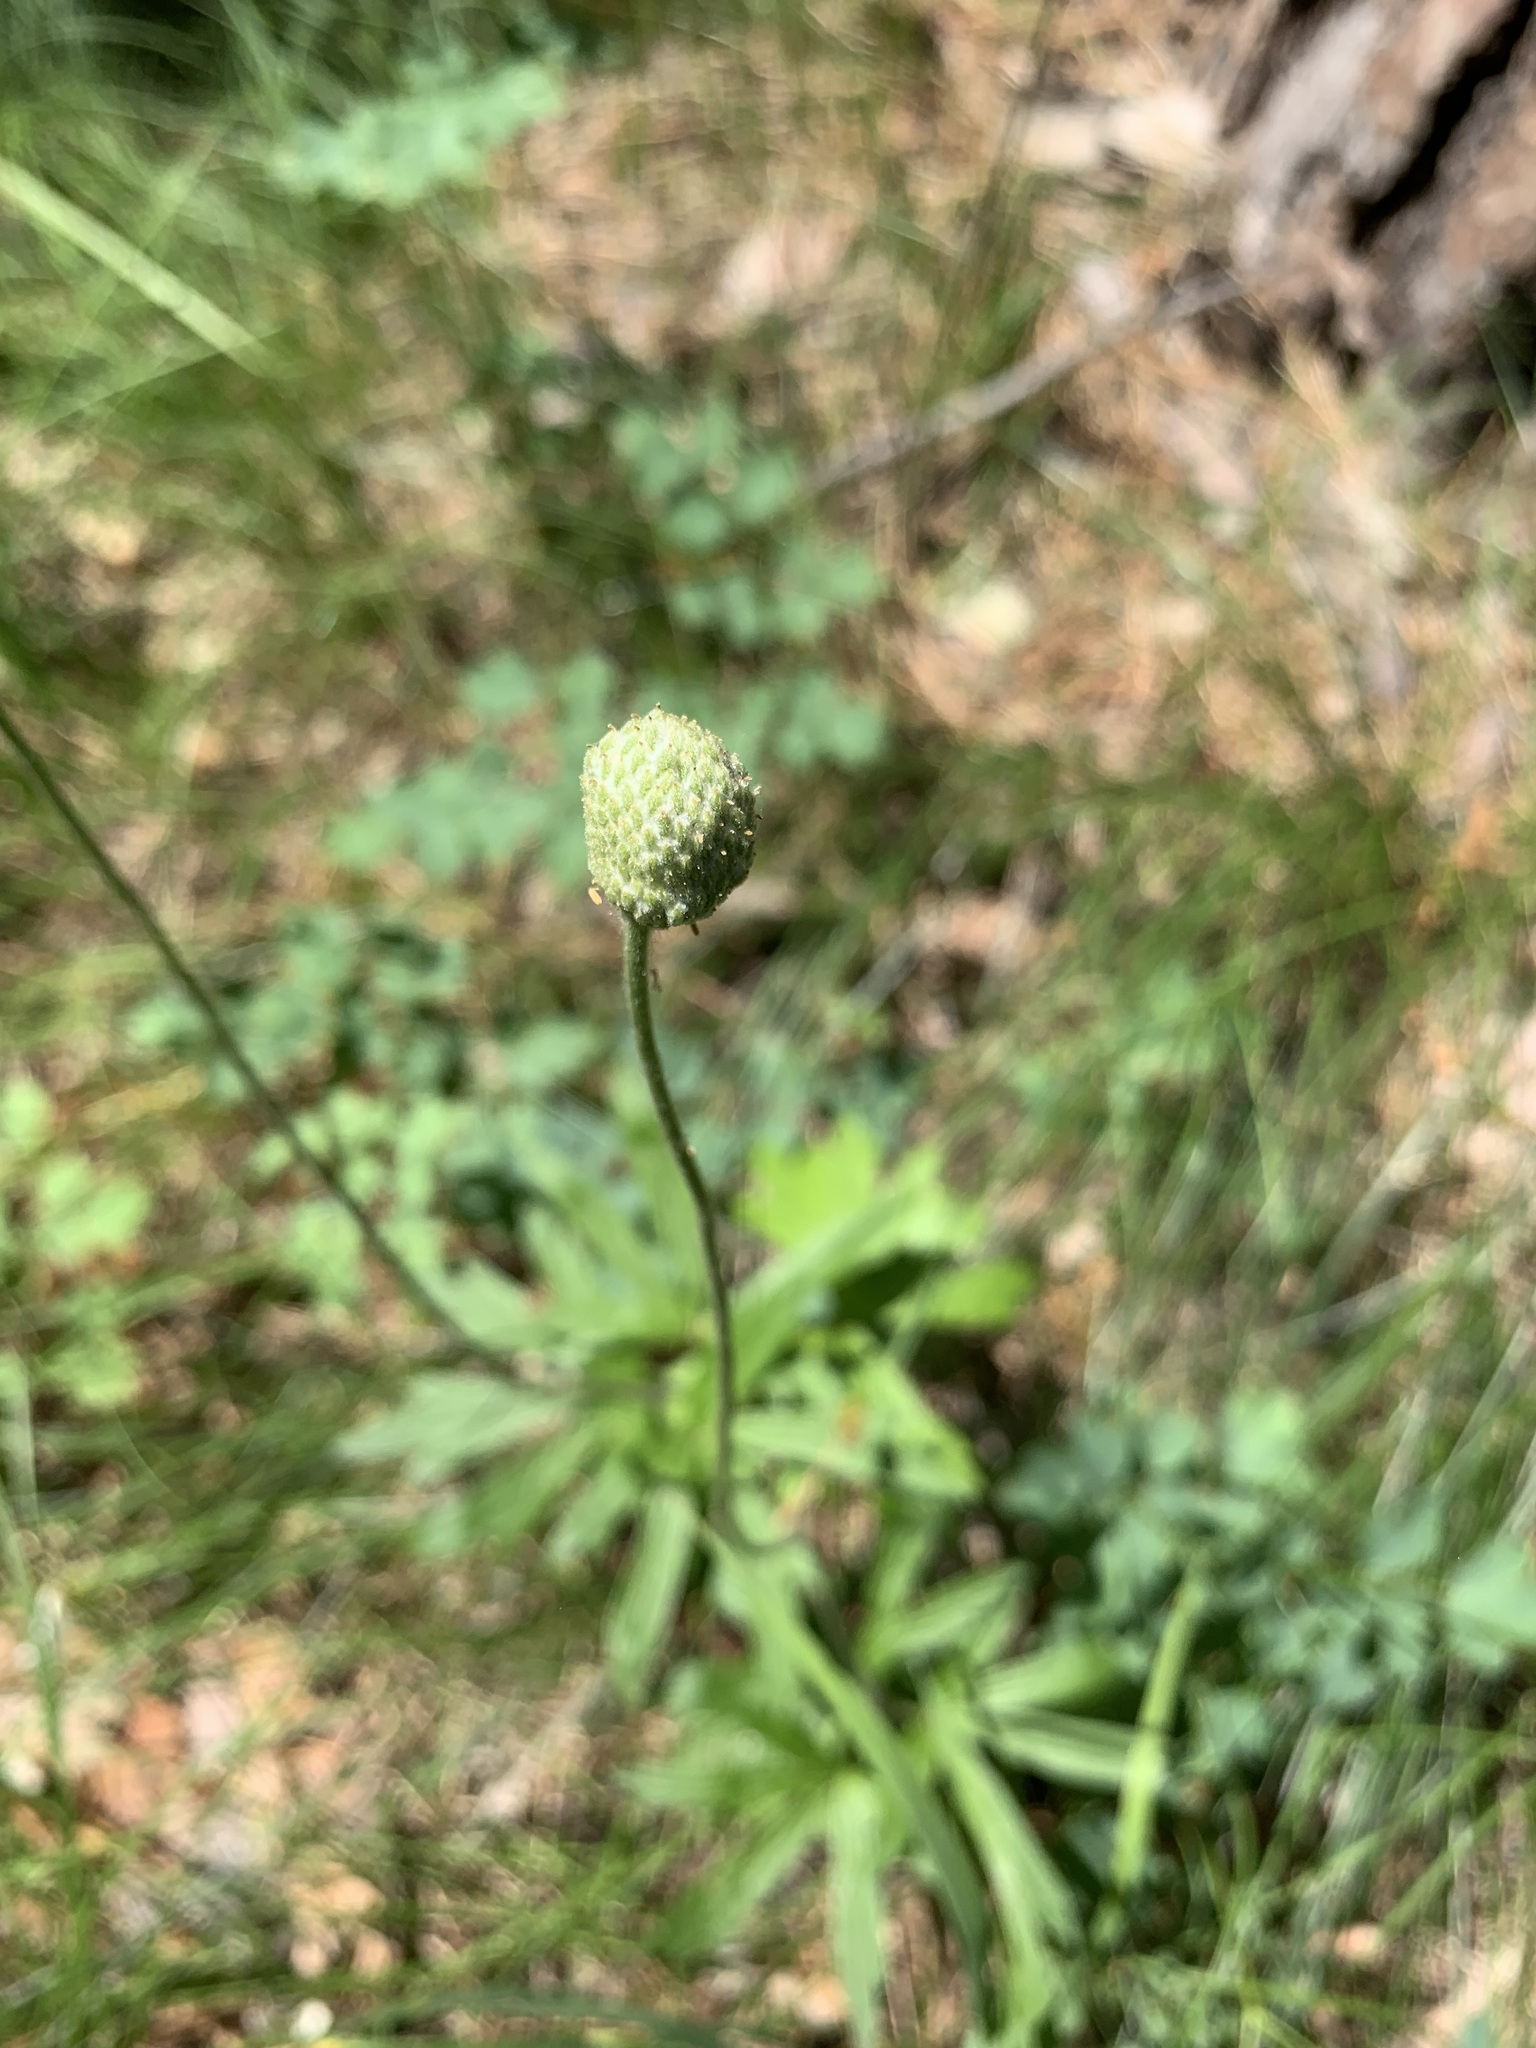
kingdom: Plantae
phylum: Tracheophyta
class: Magnoliopsida
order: Ranunculales
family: Ranunculaceae
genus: Anemone
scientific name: Anemone sylvestris
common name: Snowdrop anemone
